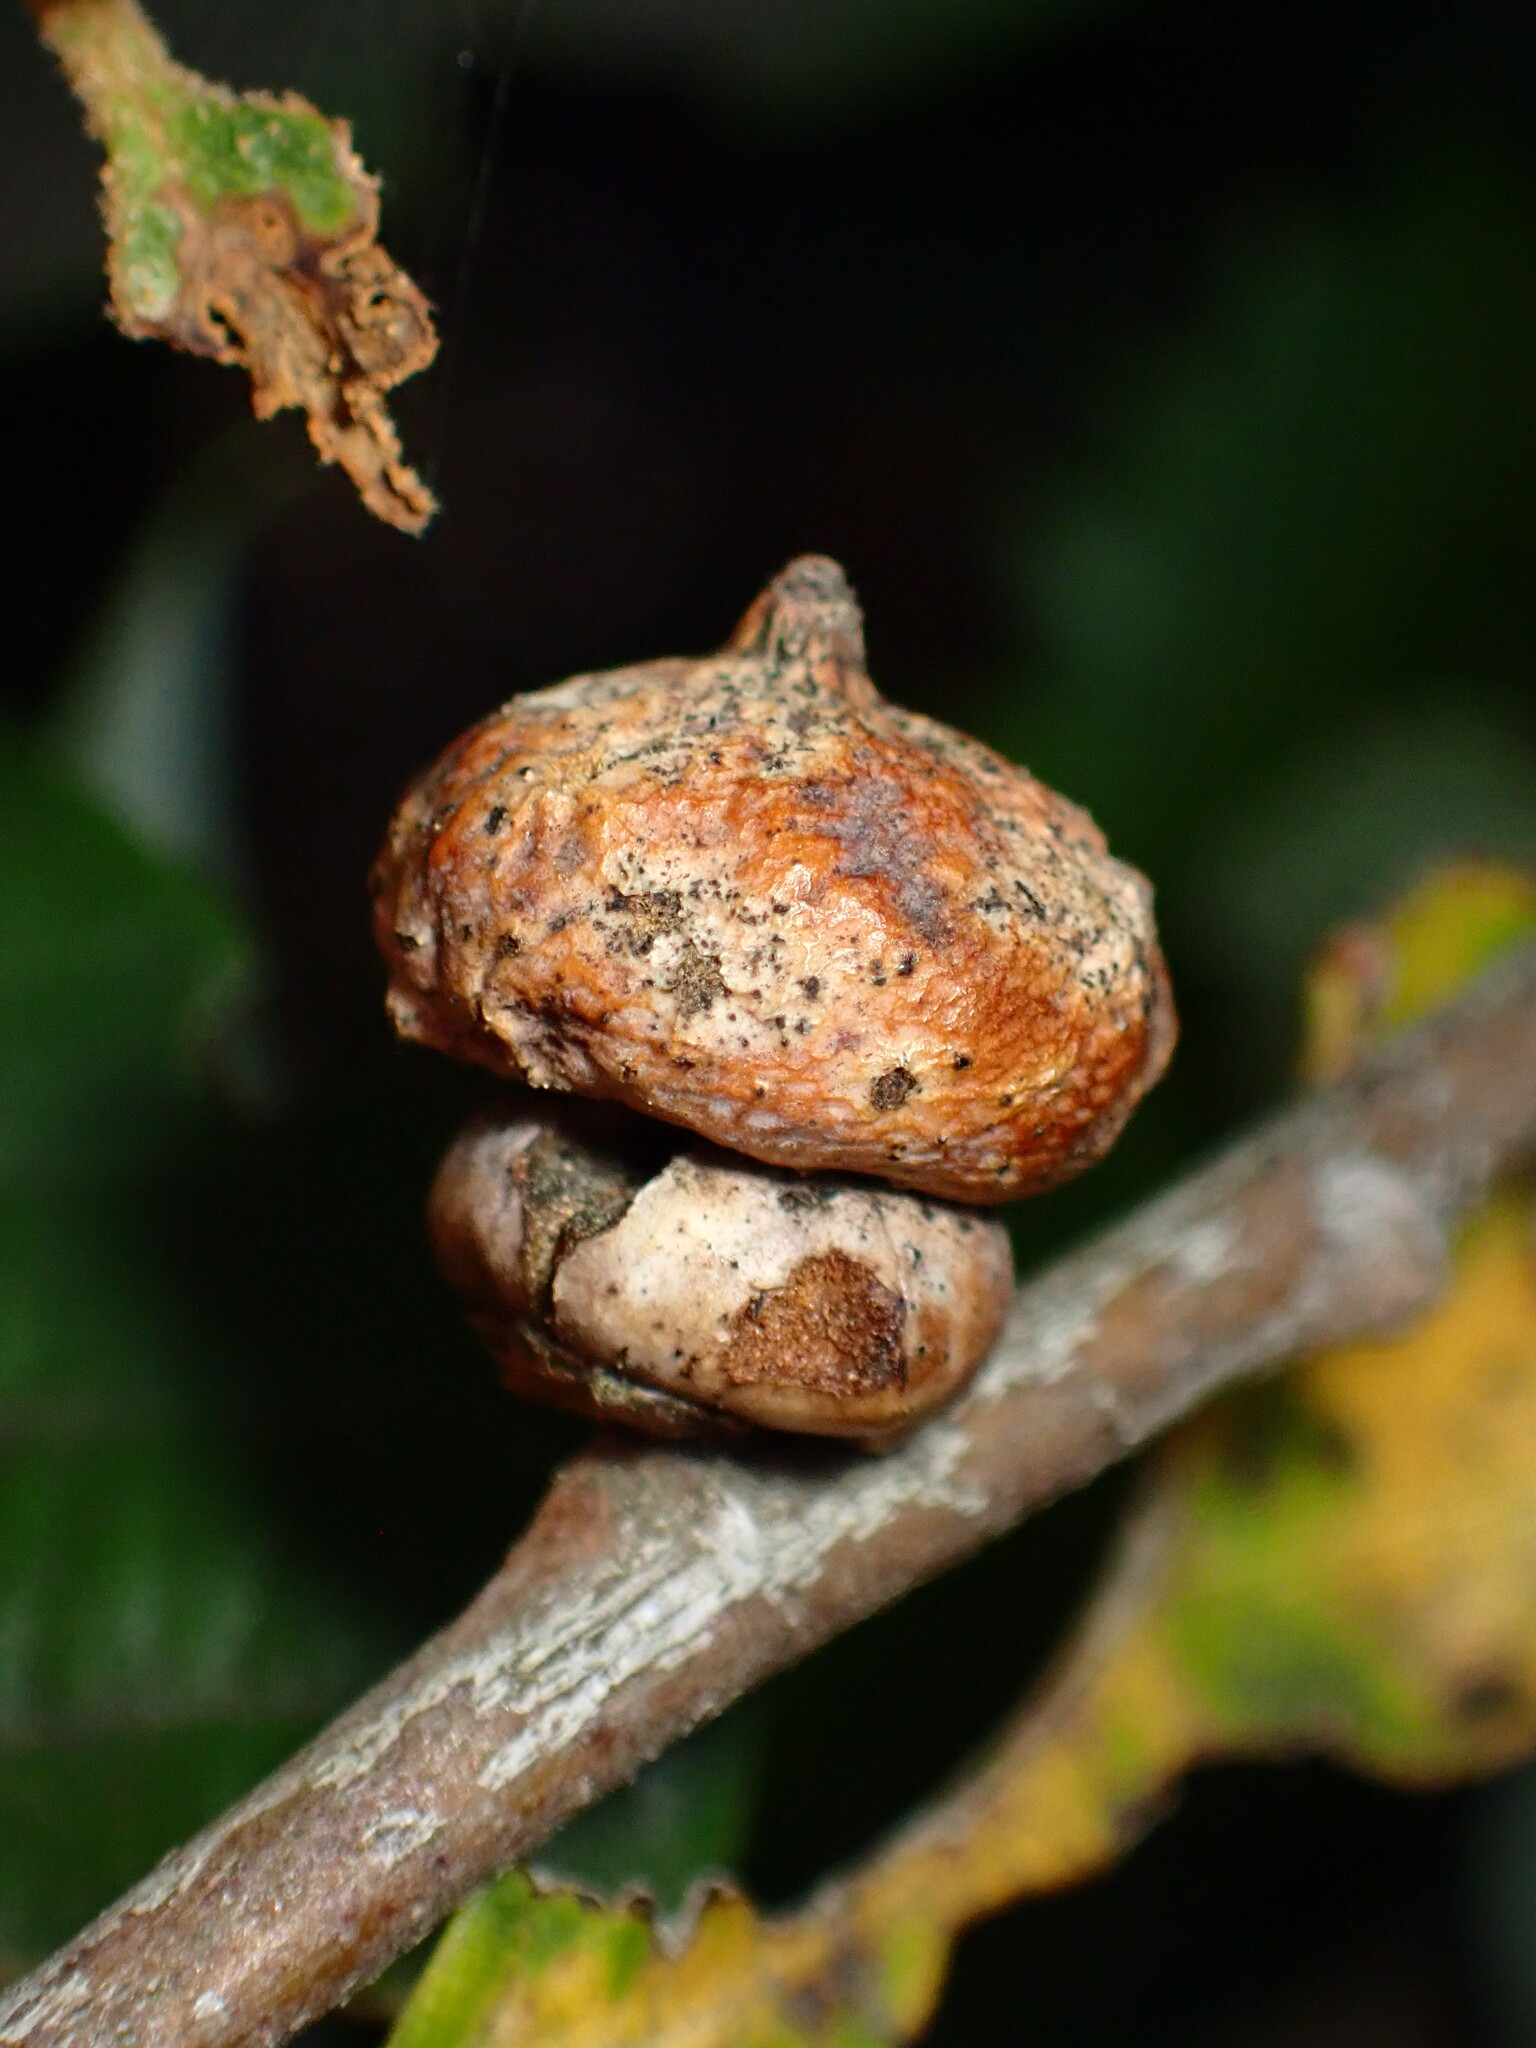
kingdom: Animalia
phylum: Arthropoda
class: Insecta
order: Hymenoptera
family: Cynipidae
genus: Heteroecus
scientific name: Heteroecus
